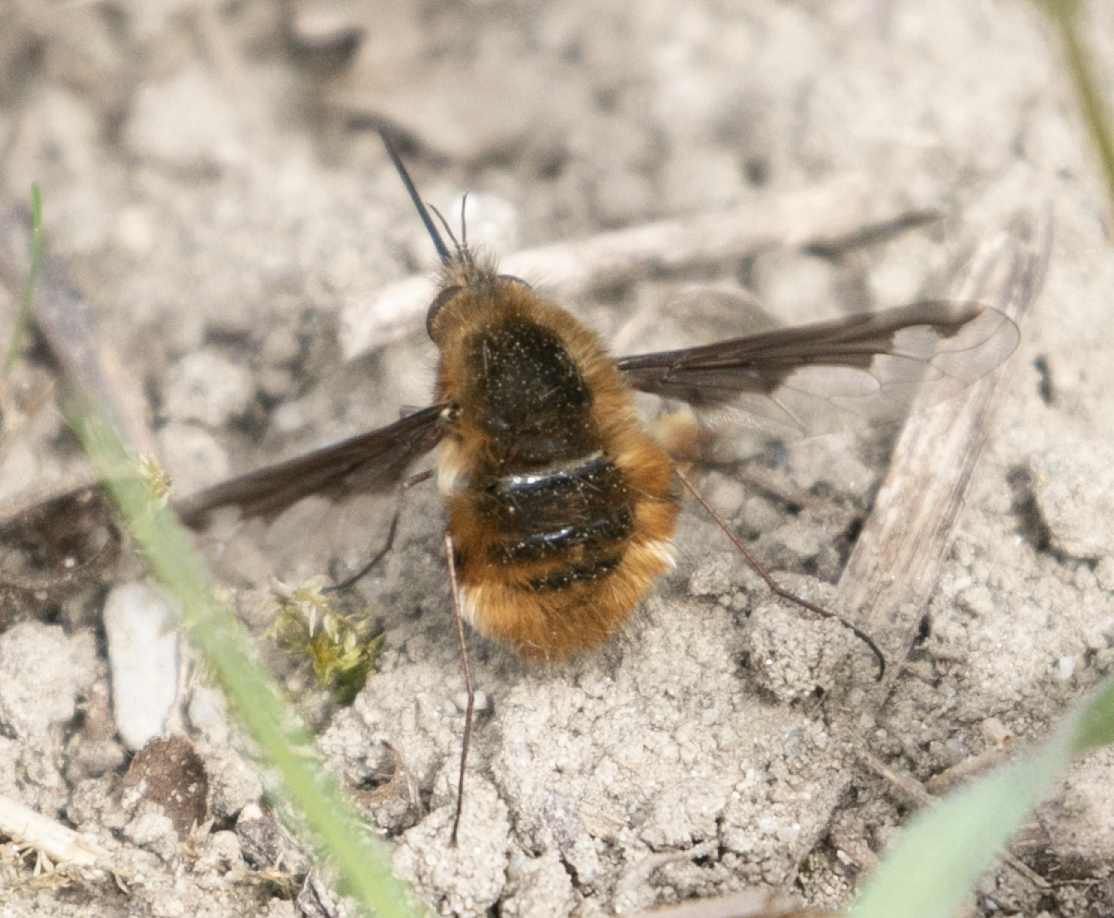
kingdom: Animalia
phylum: Arthropoda
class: Insecta
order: Diptera
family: Bombyliidae
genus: Bombylius
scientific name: Bombylius major
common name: Bee fly
